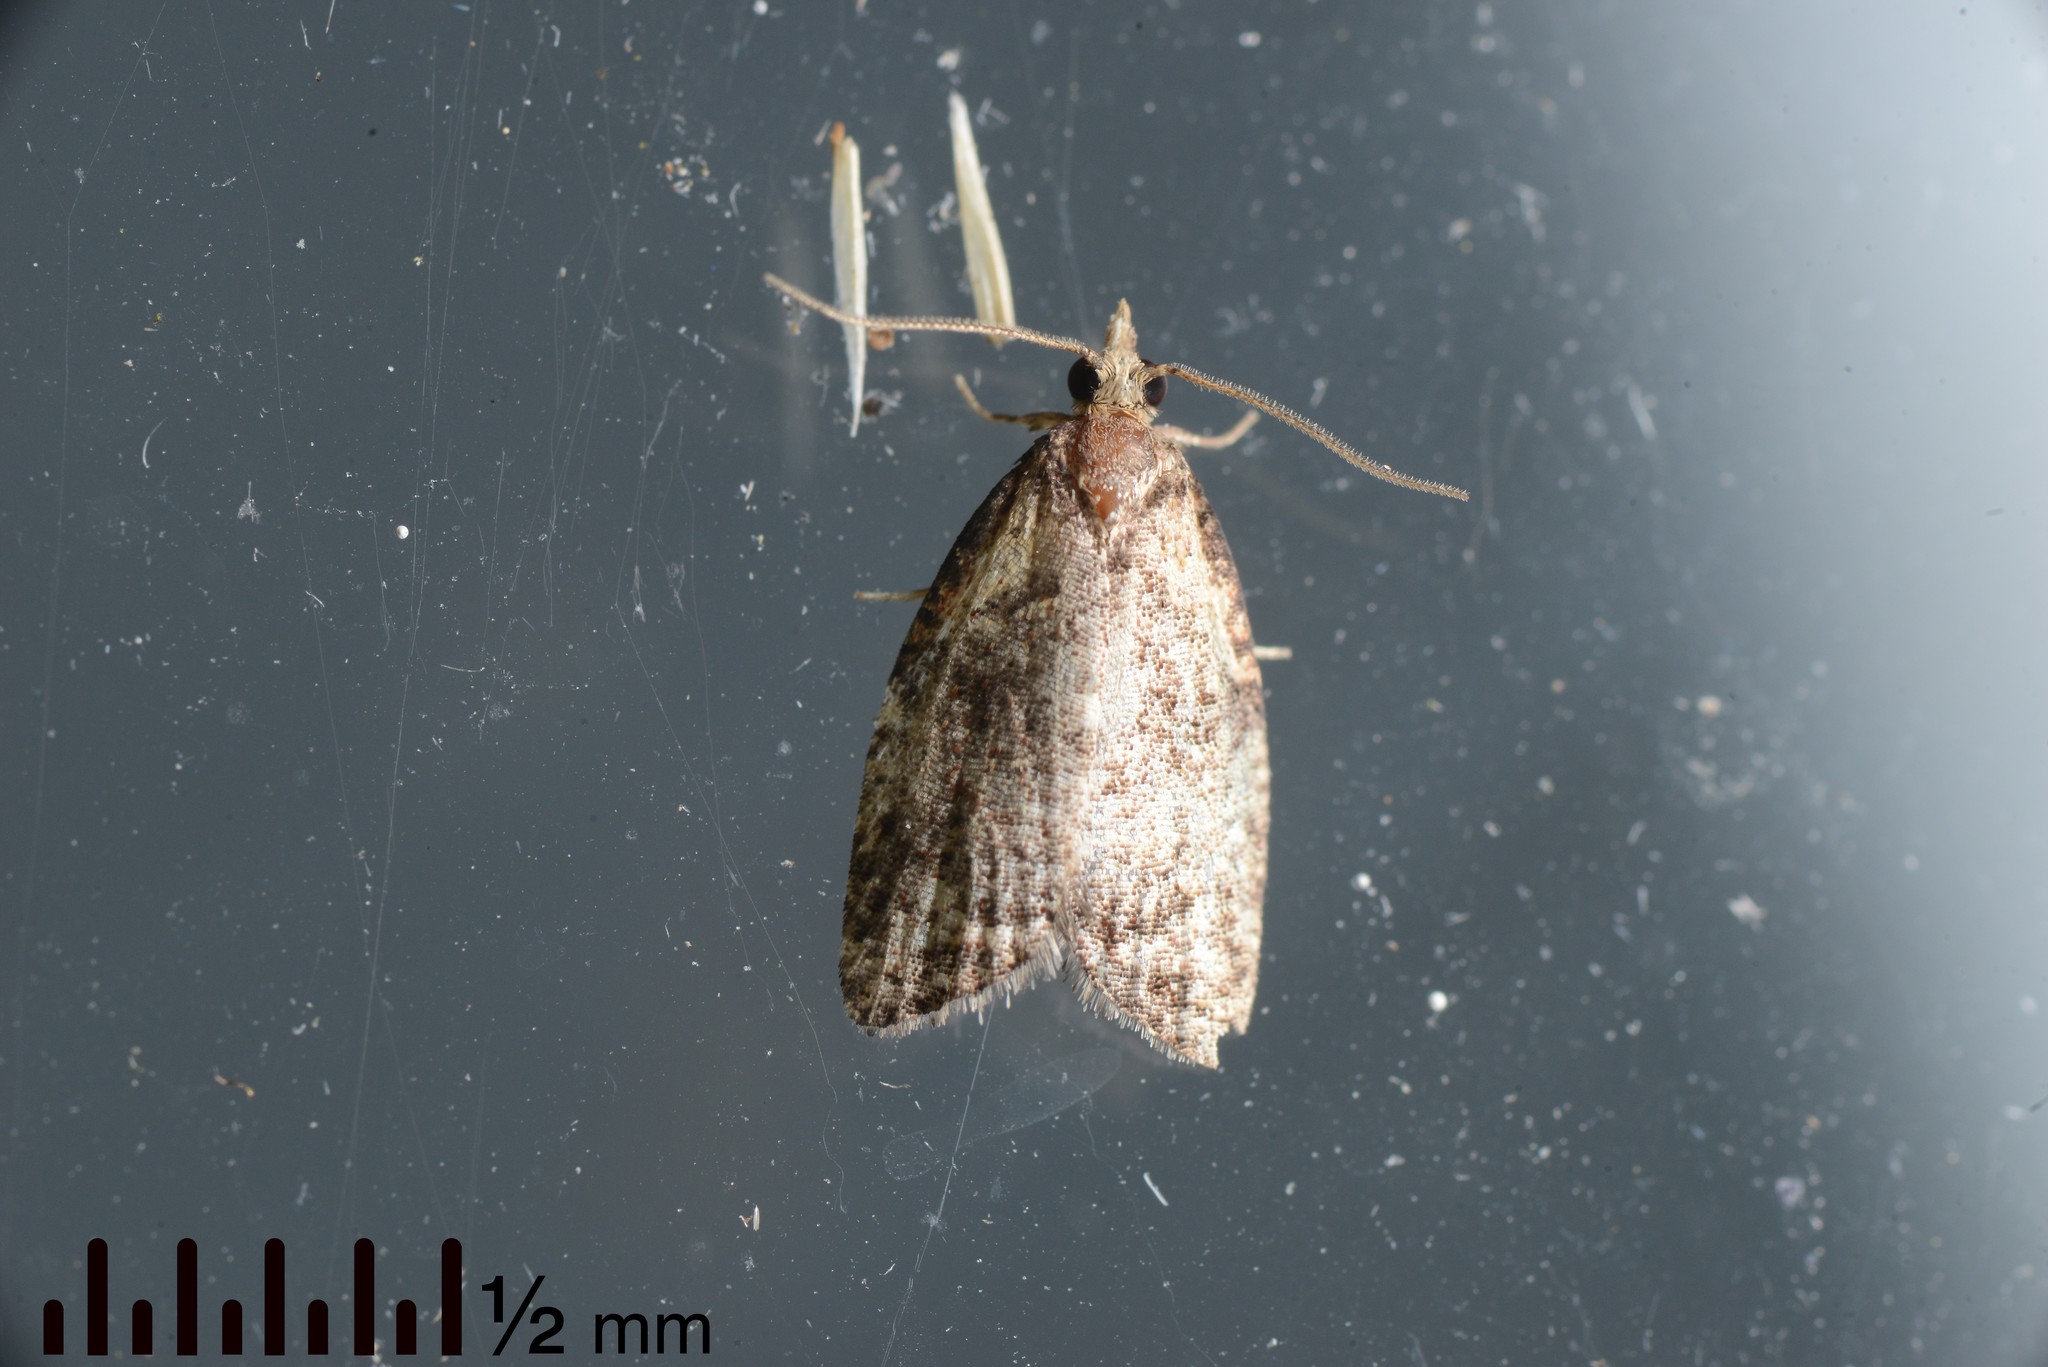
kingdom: Animalia
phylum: Arthropoda
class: Insecta
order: Lepidoptera
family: Tortricidae
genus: Capua
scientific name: Capua intractana
